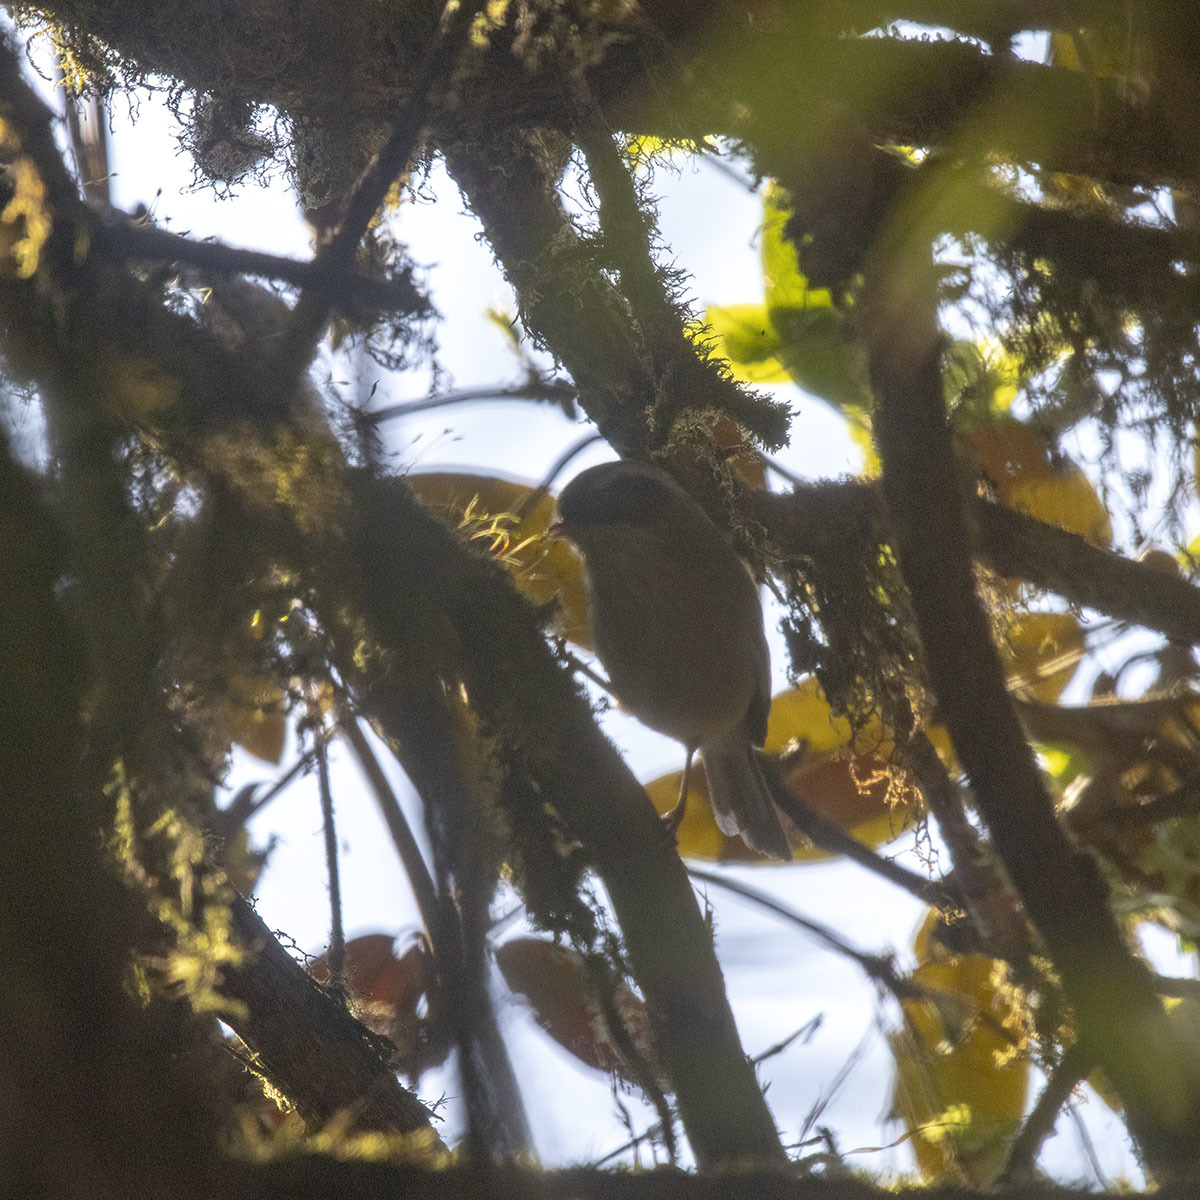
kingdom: Animalia
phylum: Chordata
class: Aves
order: Passeriformes
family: Sylviidae
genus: Fulvetta
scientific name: Fulvetta vinipectus
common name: White-browed fulvetta
